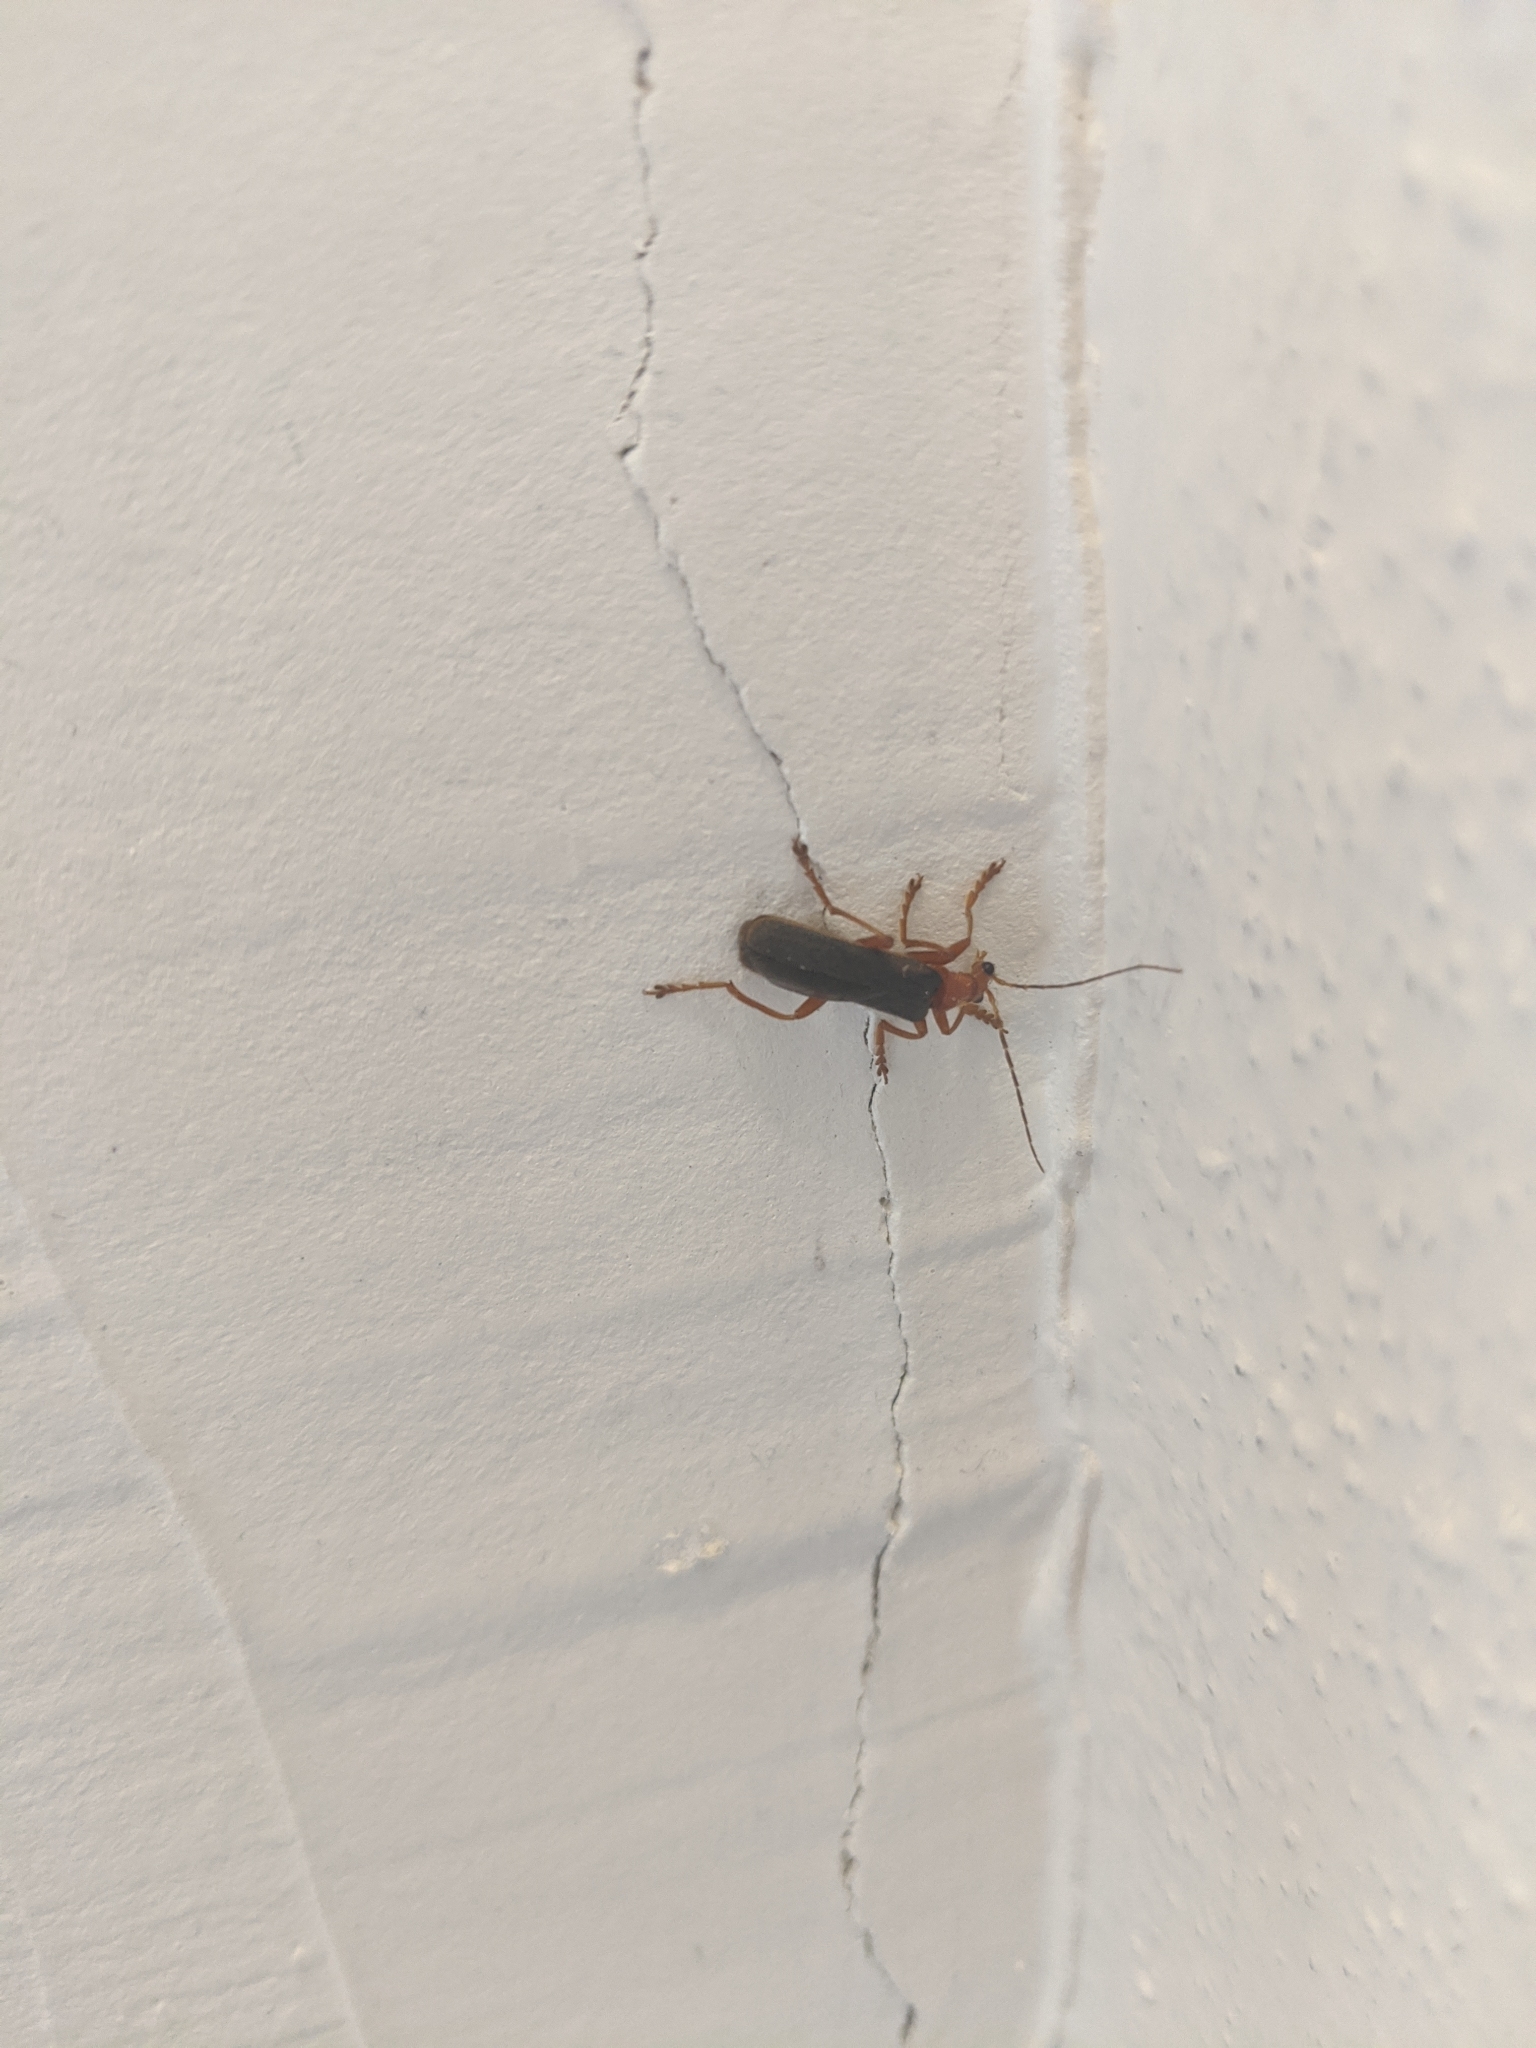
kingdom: Animalia
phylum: Arthropoda
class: Insecta
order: Coleoptera
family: Cantharidae
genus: Pacificanthia
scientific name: Pacificanthia rotundicollis
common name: Brown leatherwing beetle
